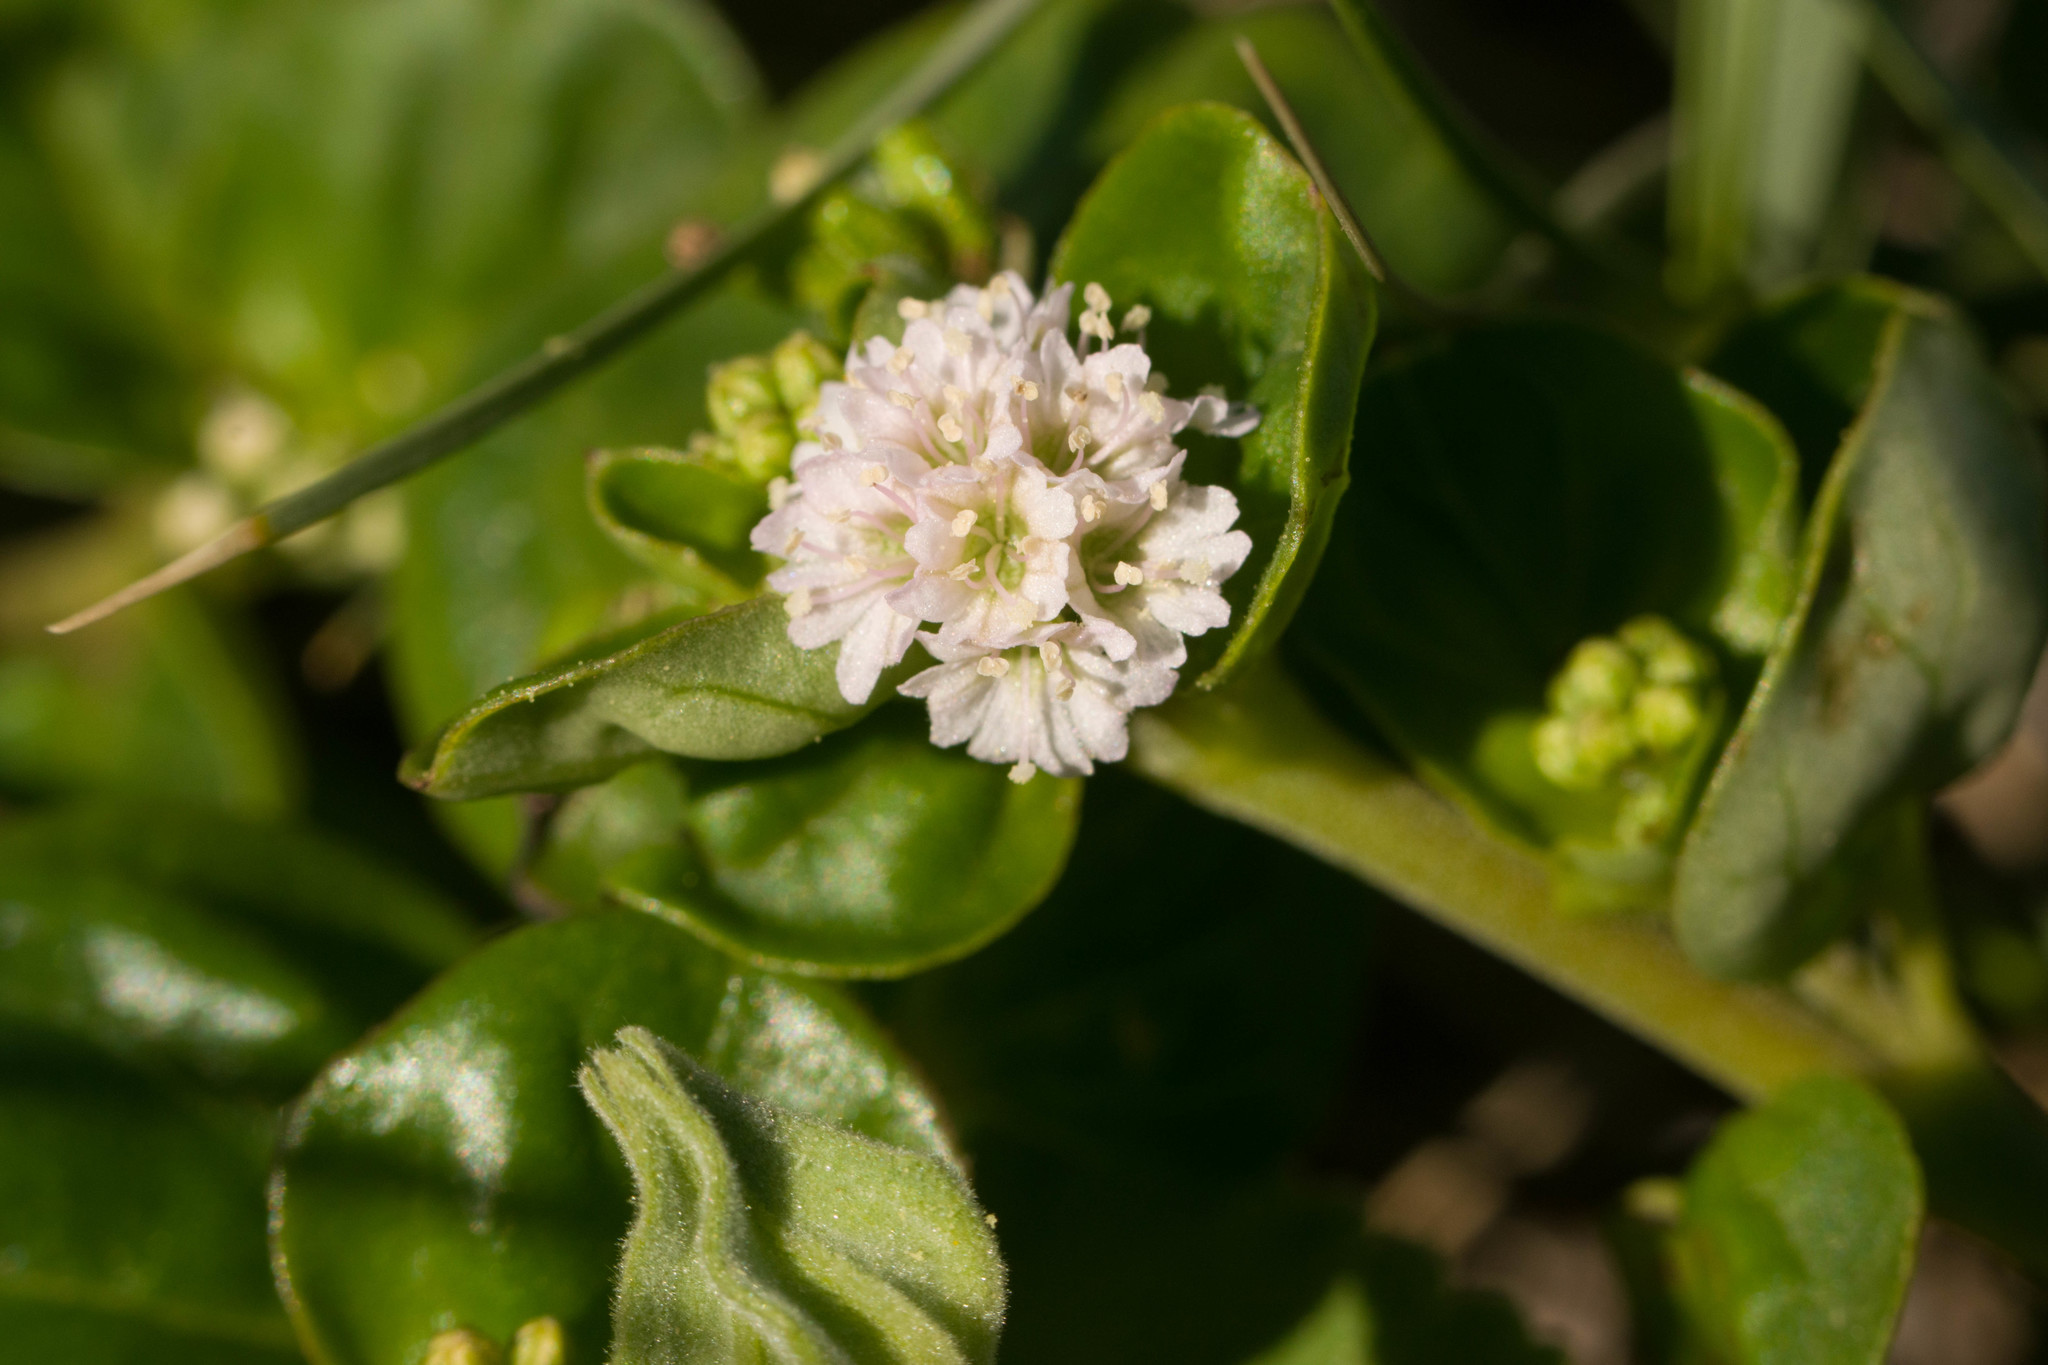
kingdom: Plantae
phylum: Tracheophyta
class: Magnoliopsida
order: Caryophyllales
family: Nyctaginaceae
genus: Boerhavia
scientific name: Boerhavia repens
